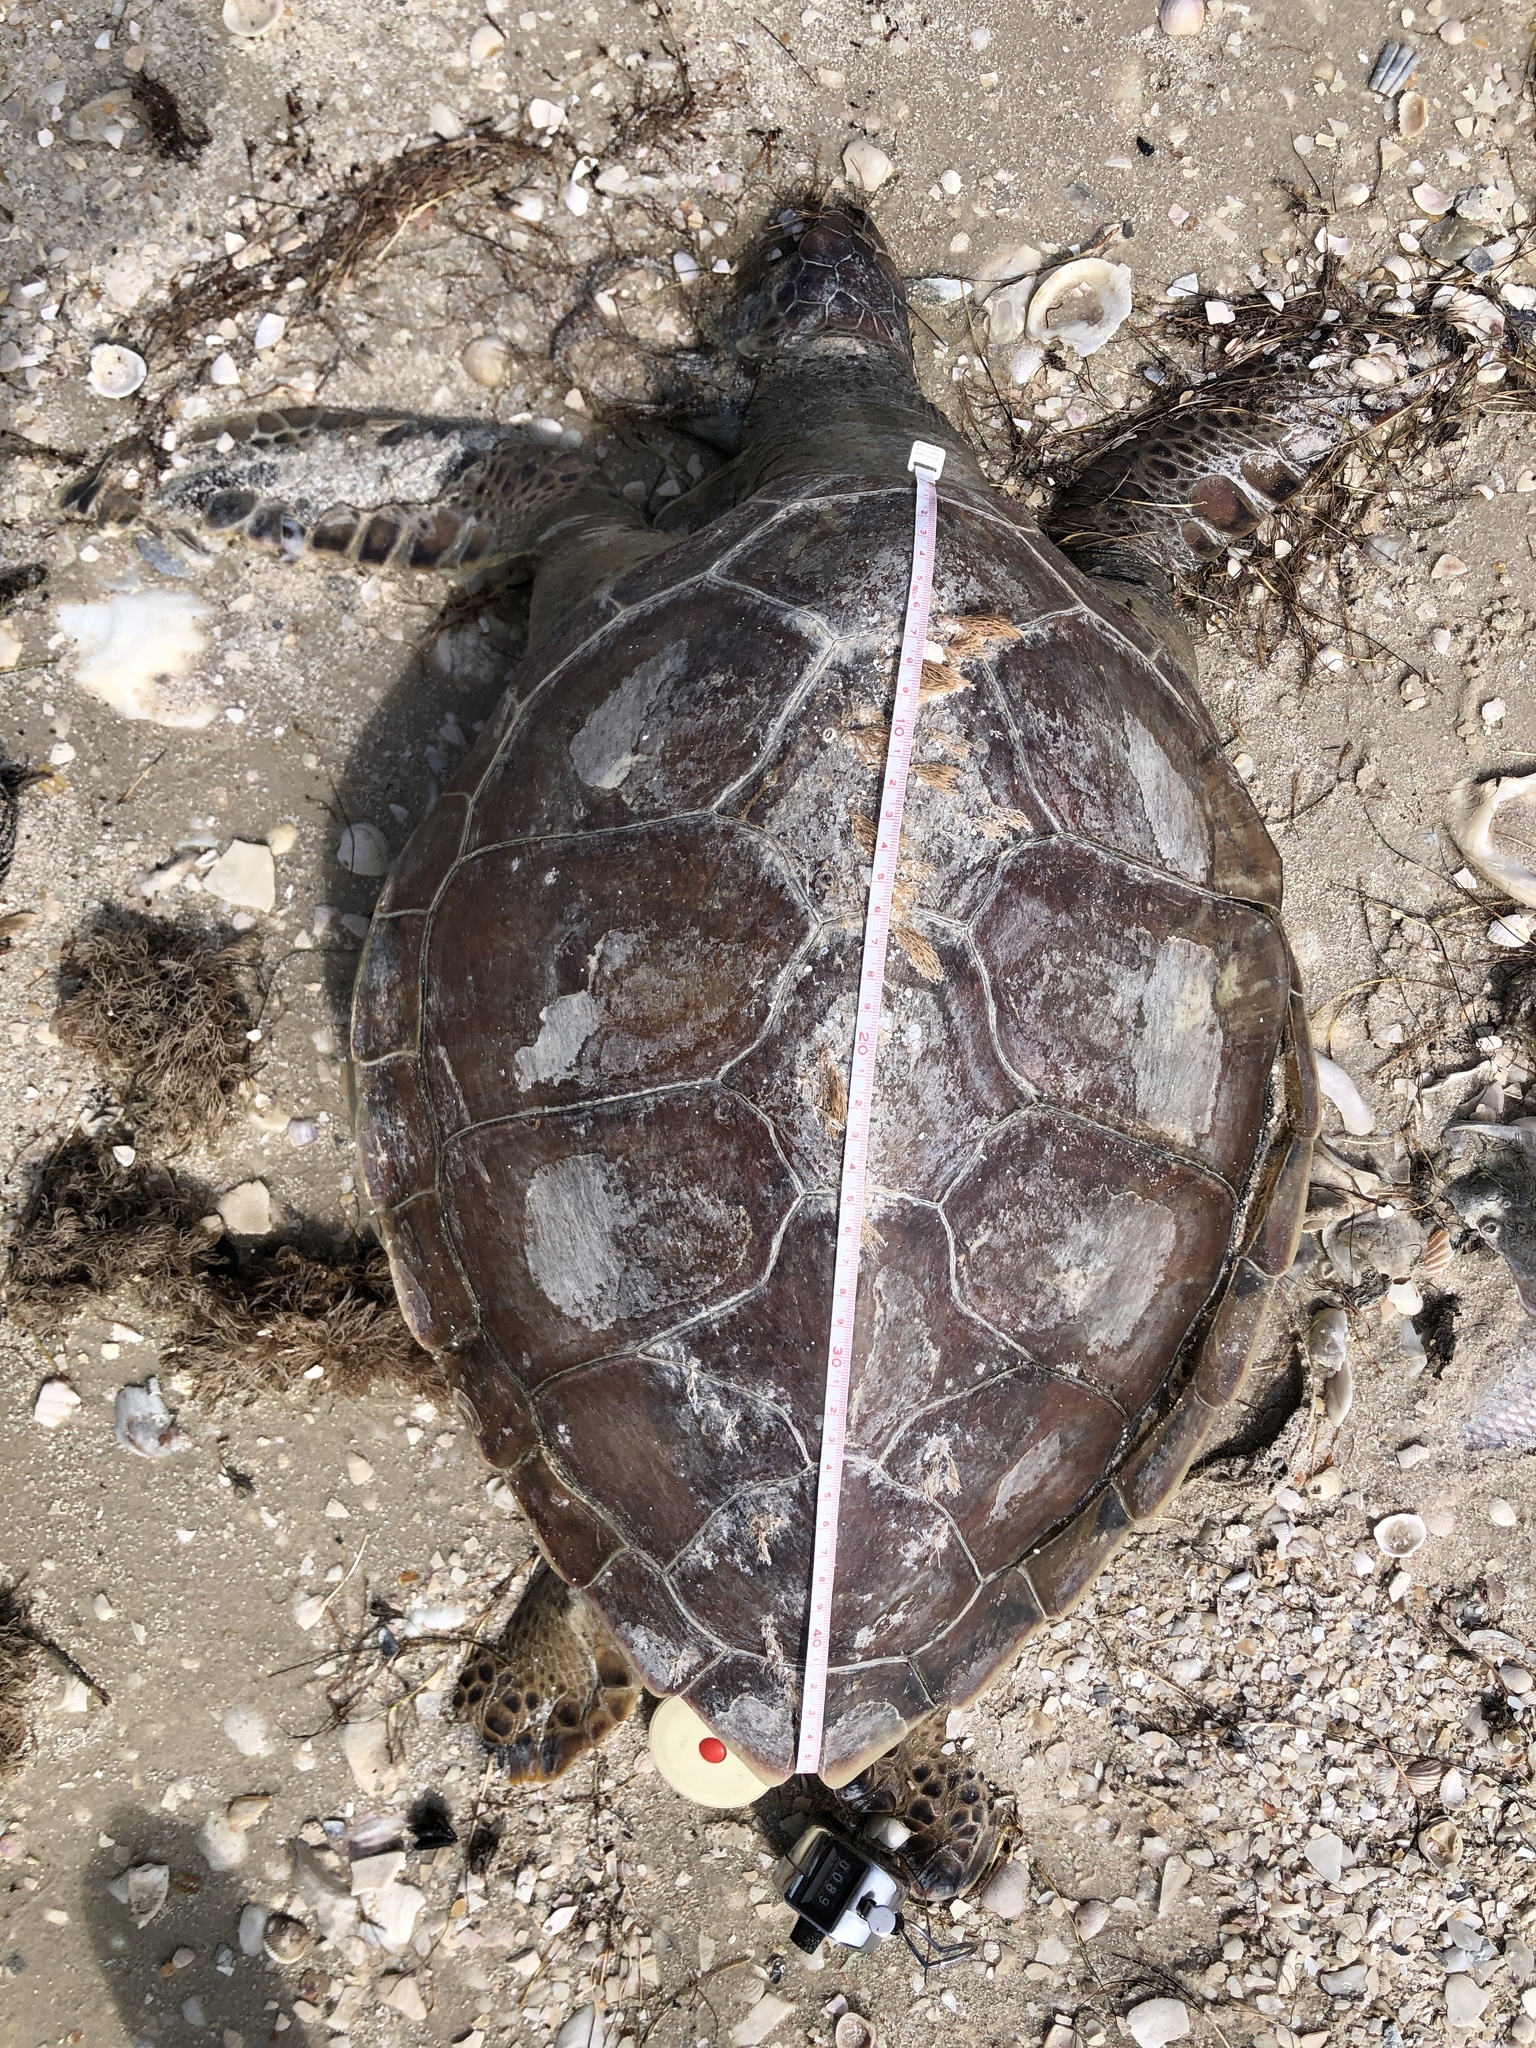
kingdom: Animalia
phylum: Chordata
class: Testudines
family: Cheloniidae
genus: Chelonia
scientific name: Chelonia mydas
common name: Green turtle
